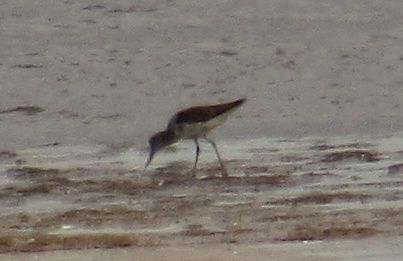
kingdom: Animalia
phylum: Chordata
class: Aves
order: Charadriiformes
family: Scolopacidae
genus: Tringa
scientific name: Tringa nebularia
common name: Common greenshank
